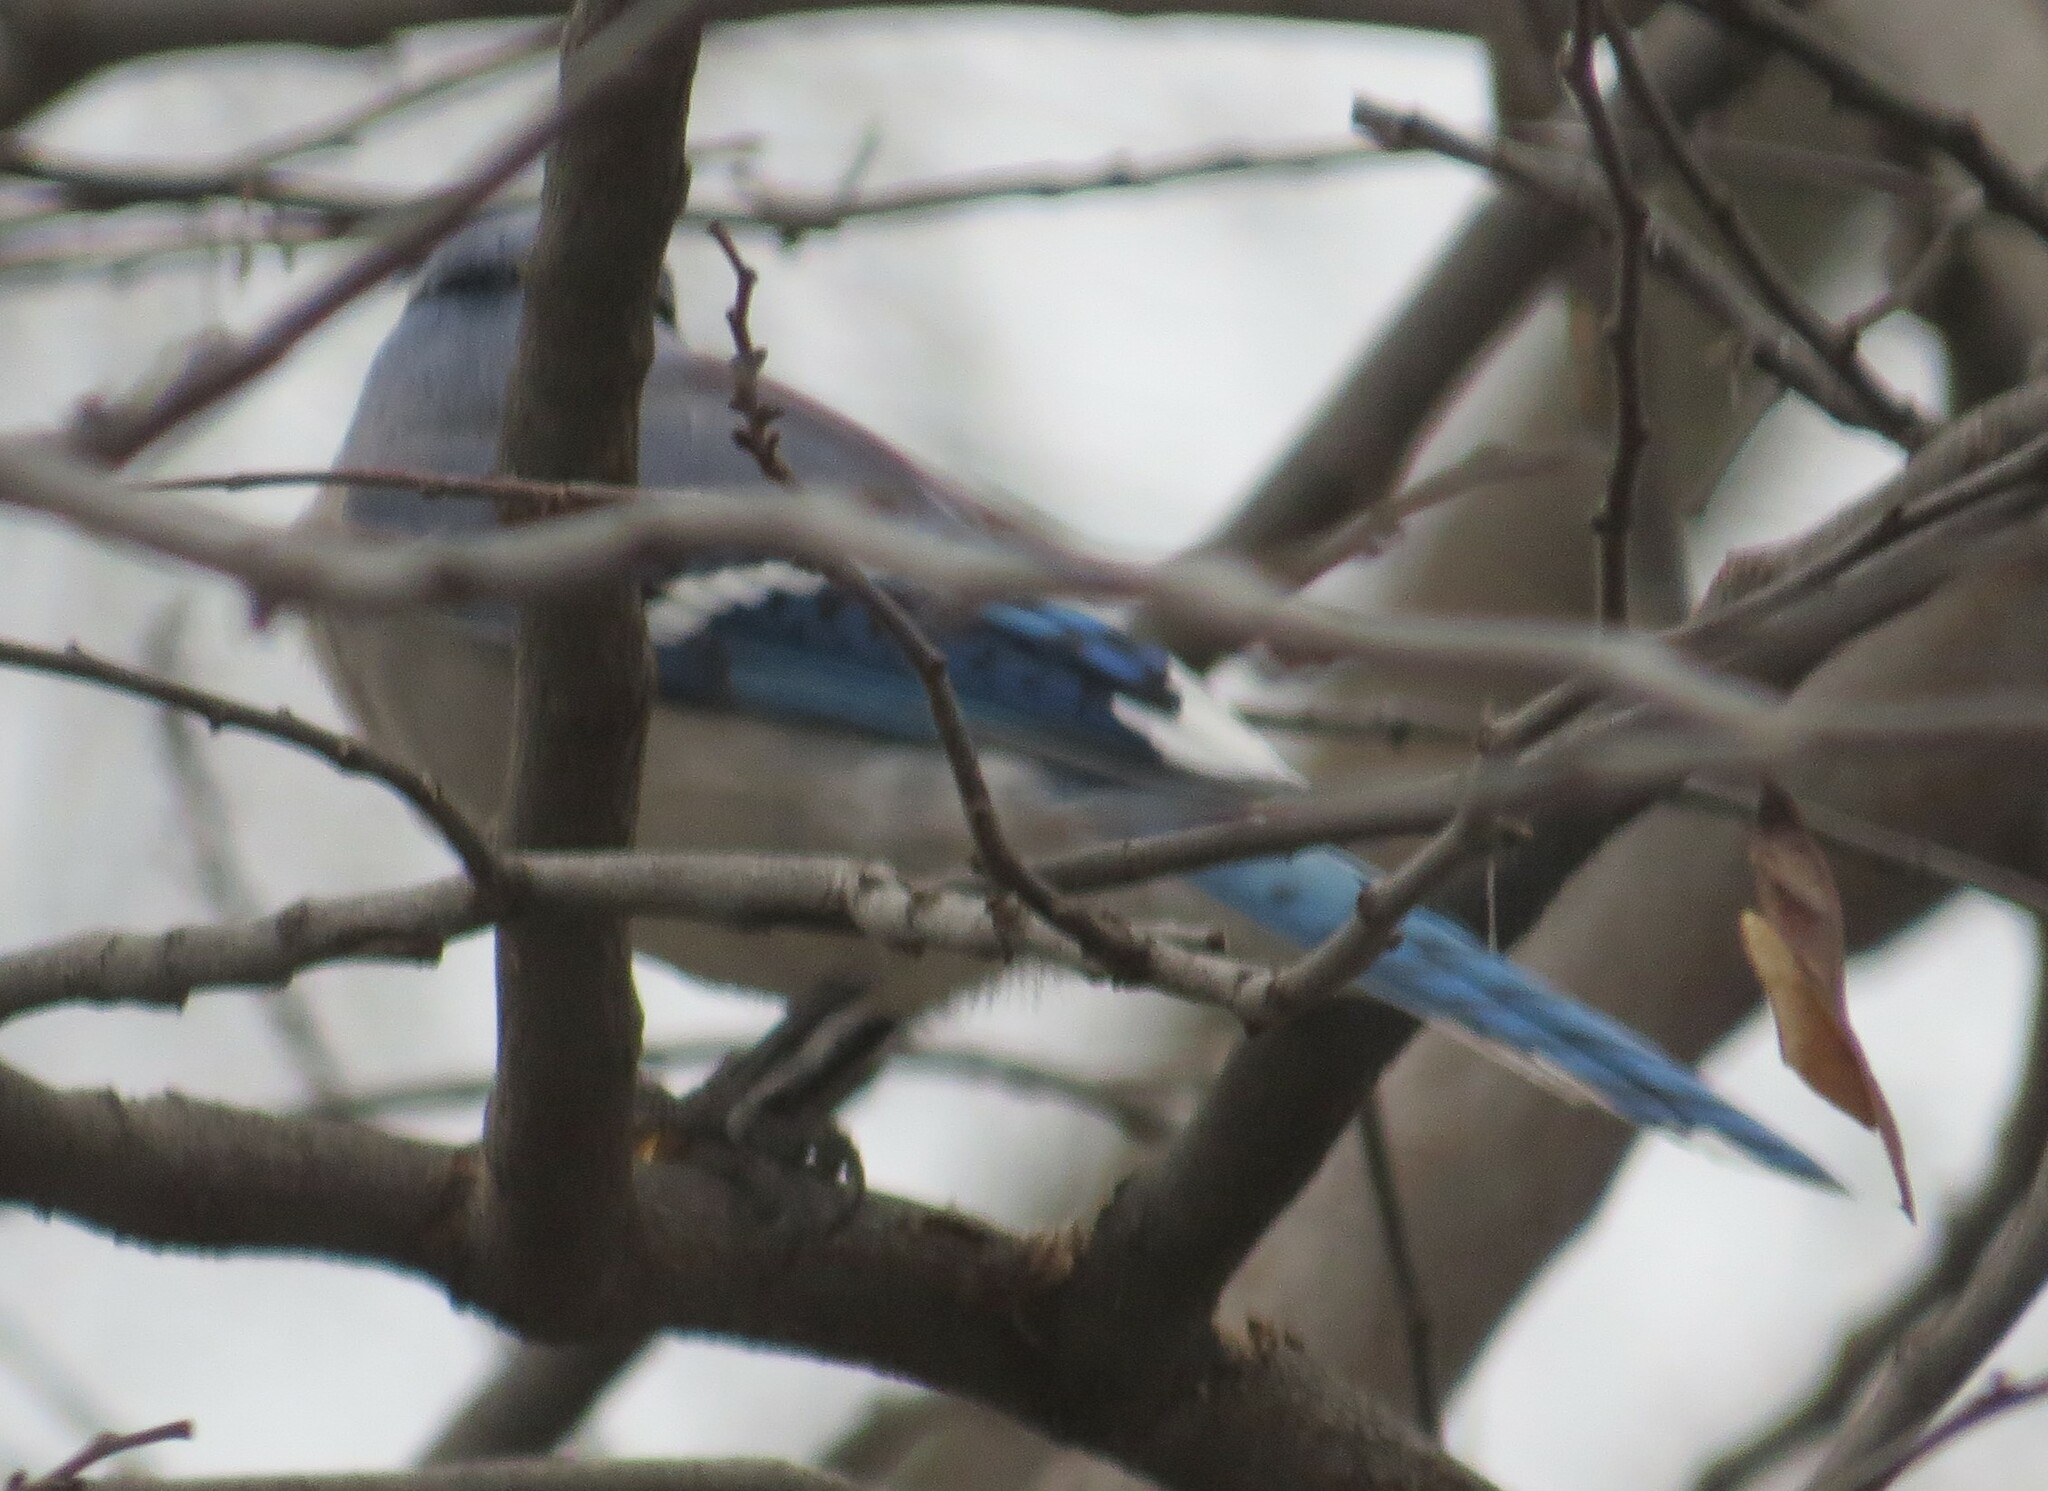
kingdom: Animalia
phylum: Chordata
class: Aves
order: Passeriformes
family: Corvidae
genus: Cyanocitta
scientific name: Cyanocitta cristata
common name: Blue jay
